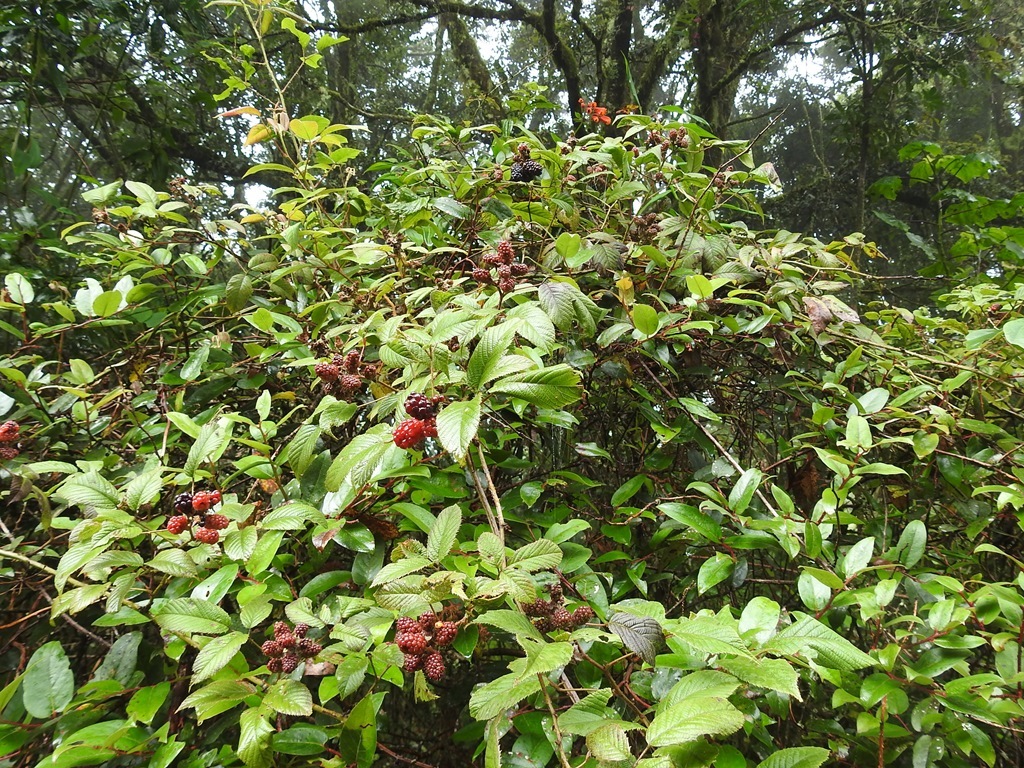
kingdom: Plantae
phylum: Tracheophyta
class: Magnoliopsida
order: Rosales
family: Rosaceae
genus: Rubus
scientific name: Rubus adenotrichos
